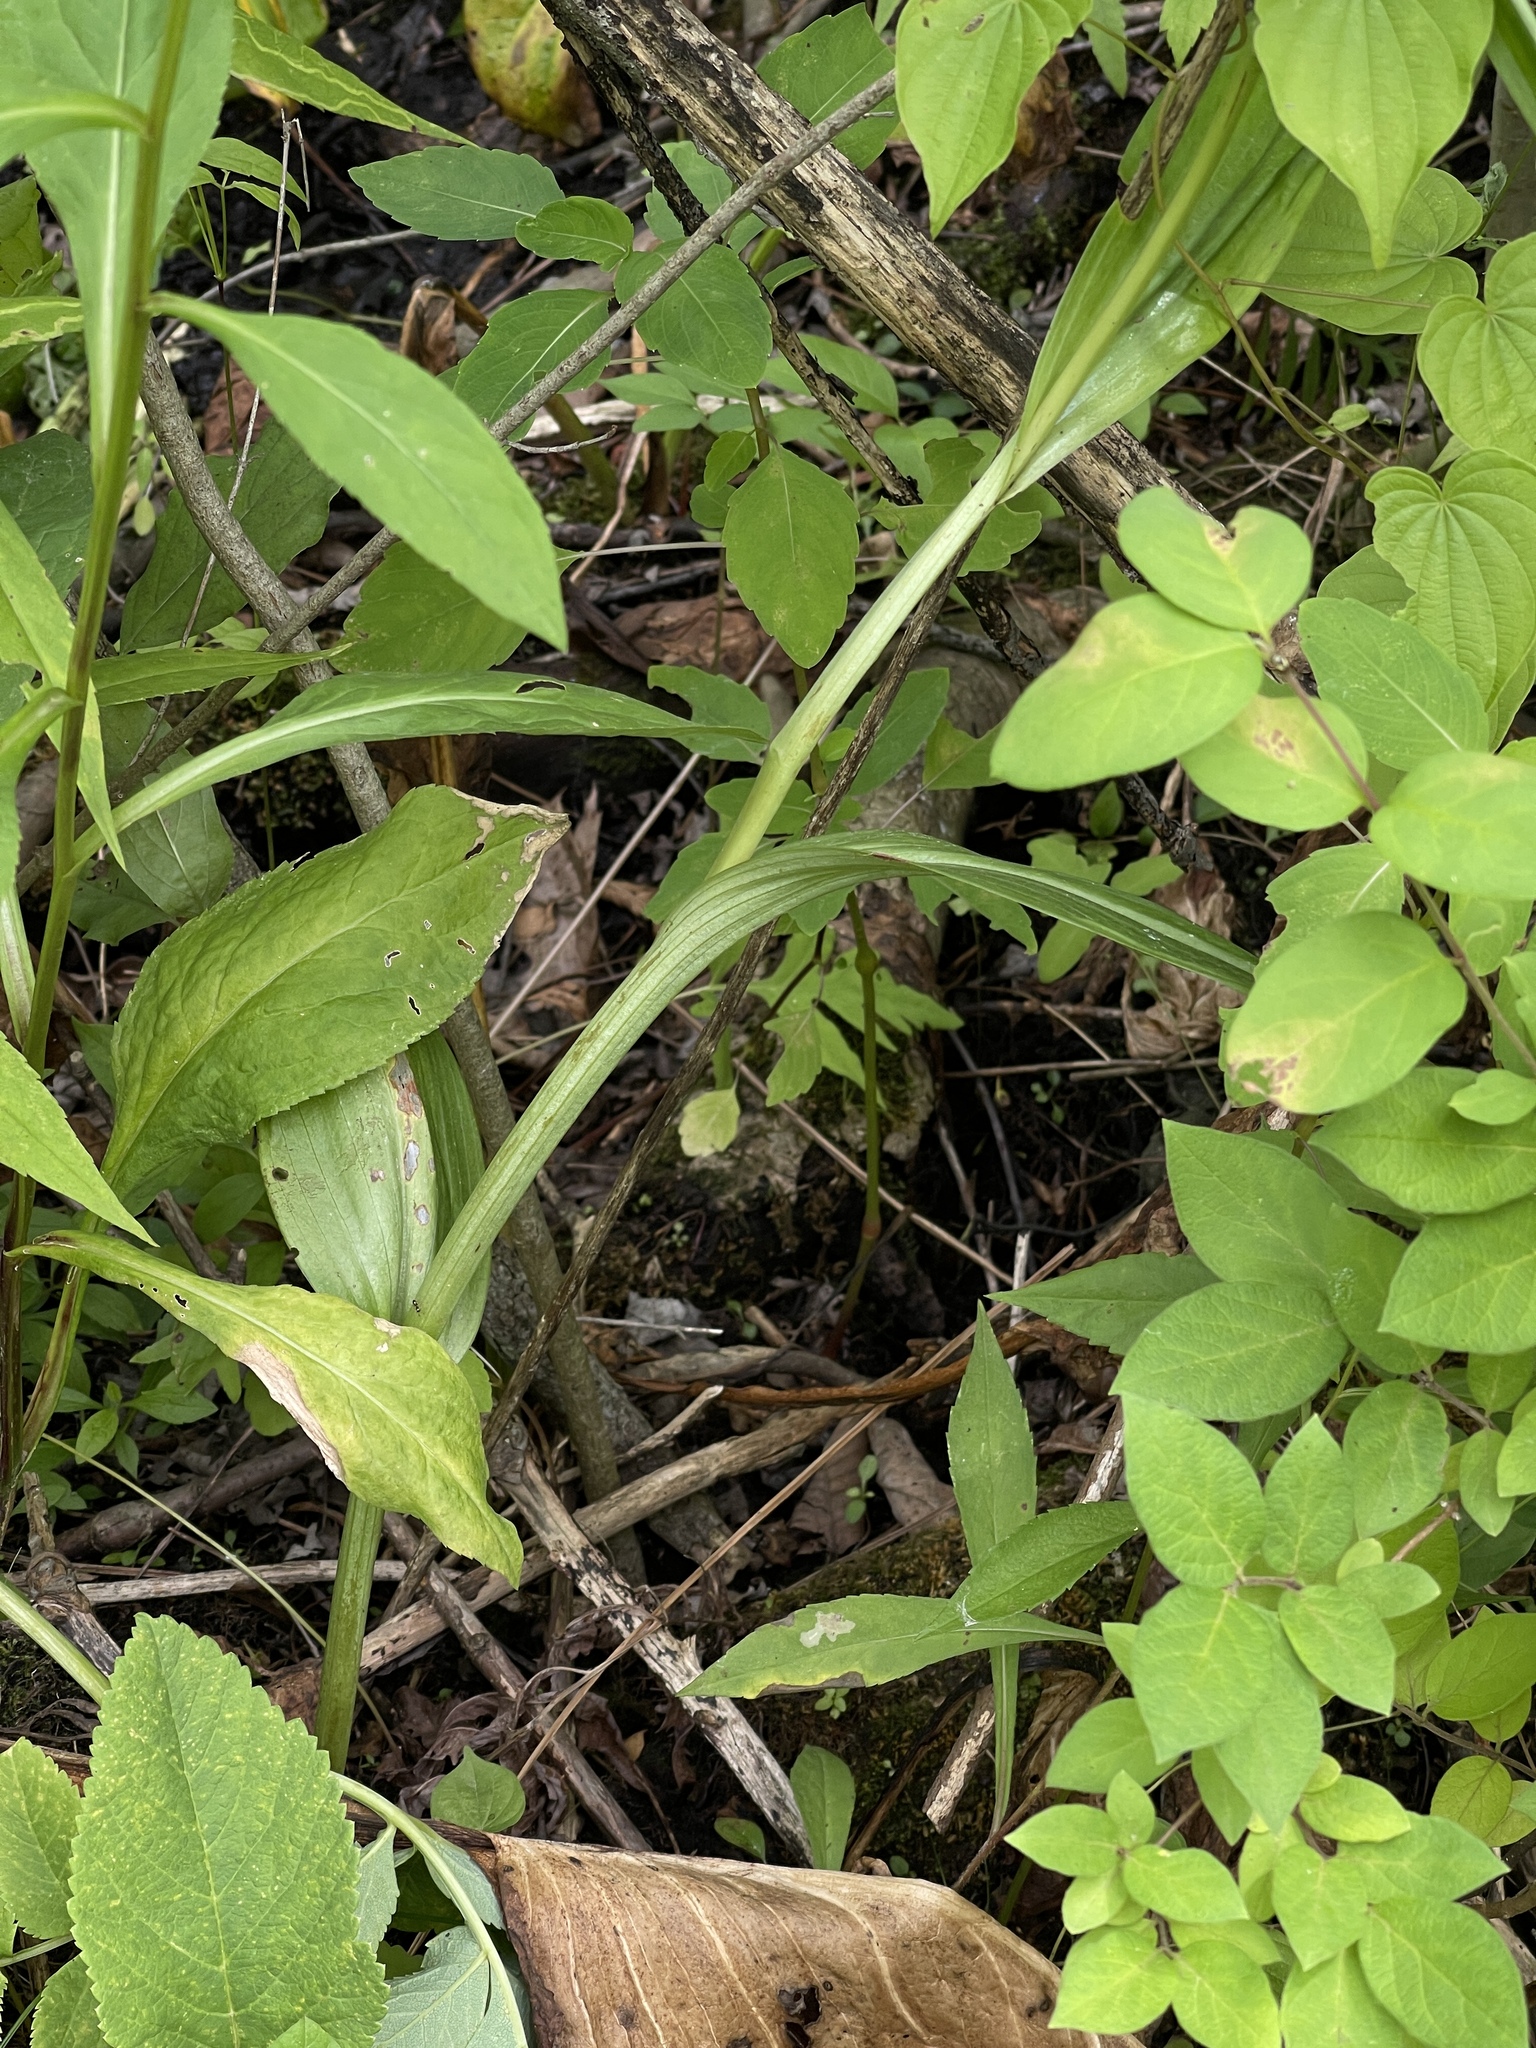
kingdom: Plantae
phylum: Tracheophyta
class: Liliopsida
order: Asparagales
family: Orchidaceae
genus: Platanthera
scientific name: Platanthera psycodes
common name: Lesser purple fringed orchid
